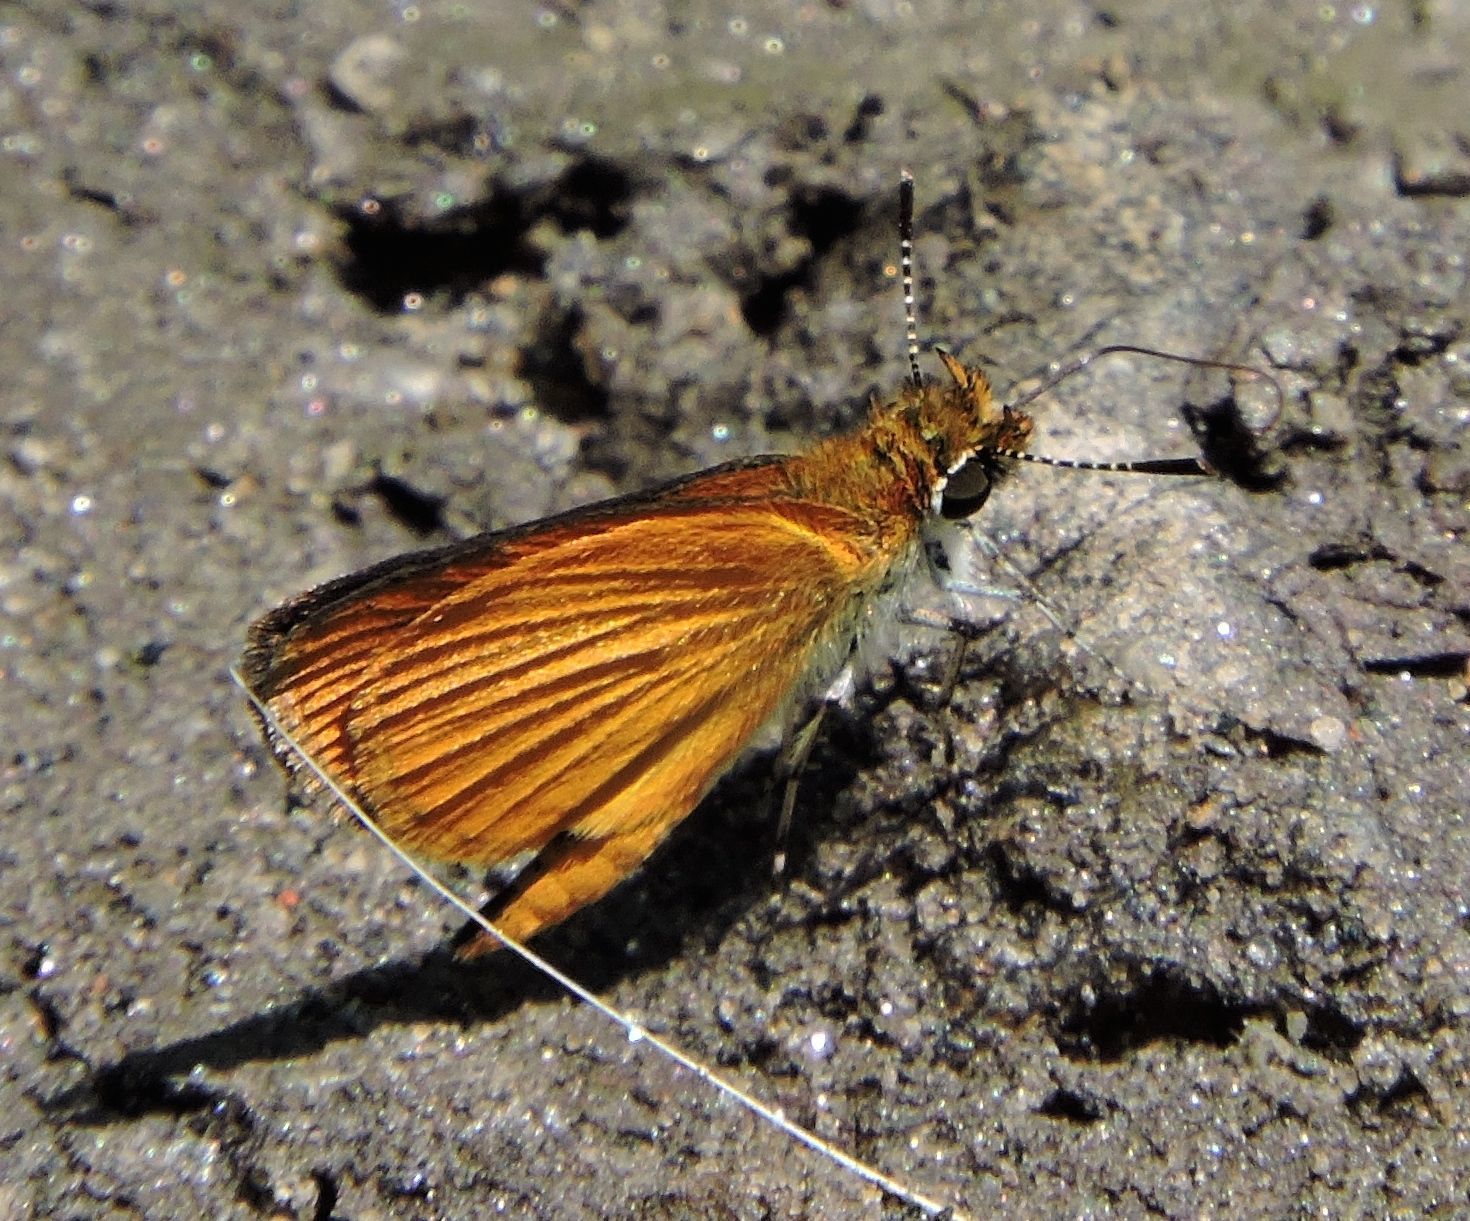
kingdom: Animalia
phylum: Arthropoda
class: Insecta
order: Lepidoptera
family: Hesperiidae
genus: Ancyloxypha
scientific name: Ancyloxypha numitor
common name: Least skipper
